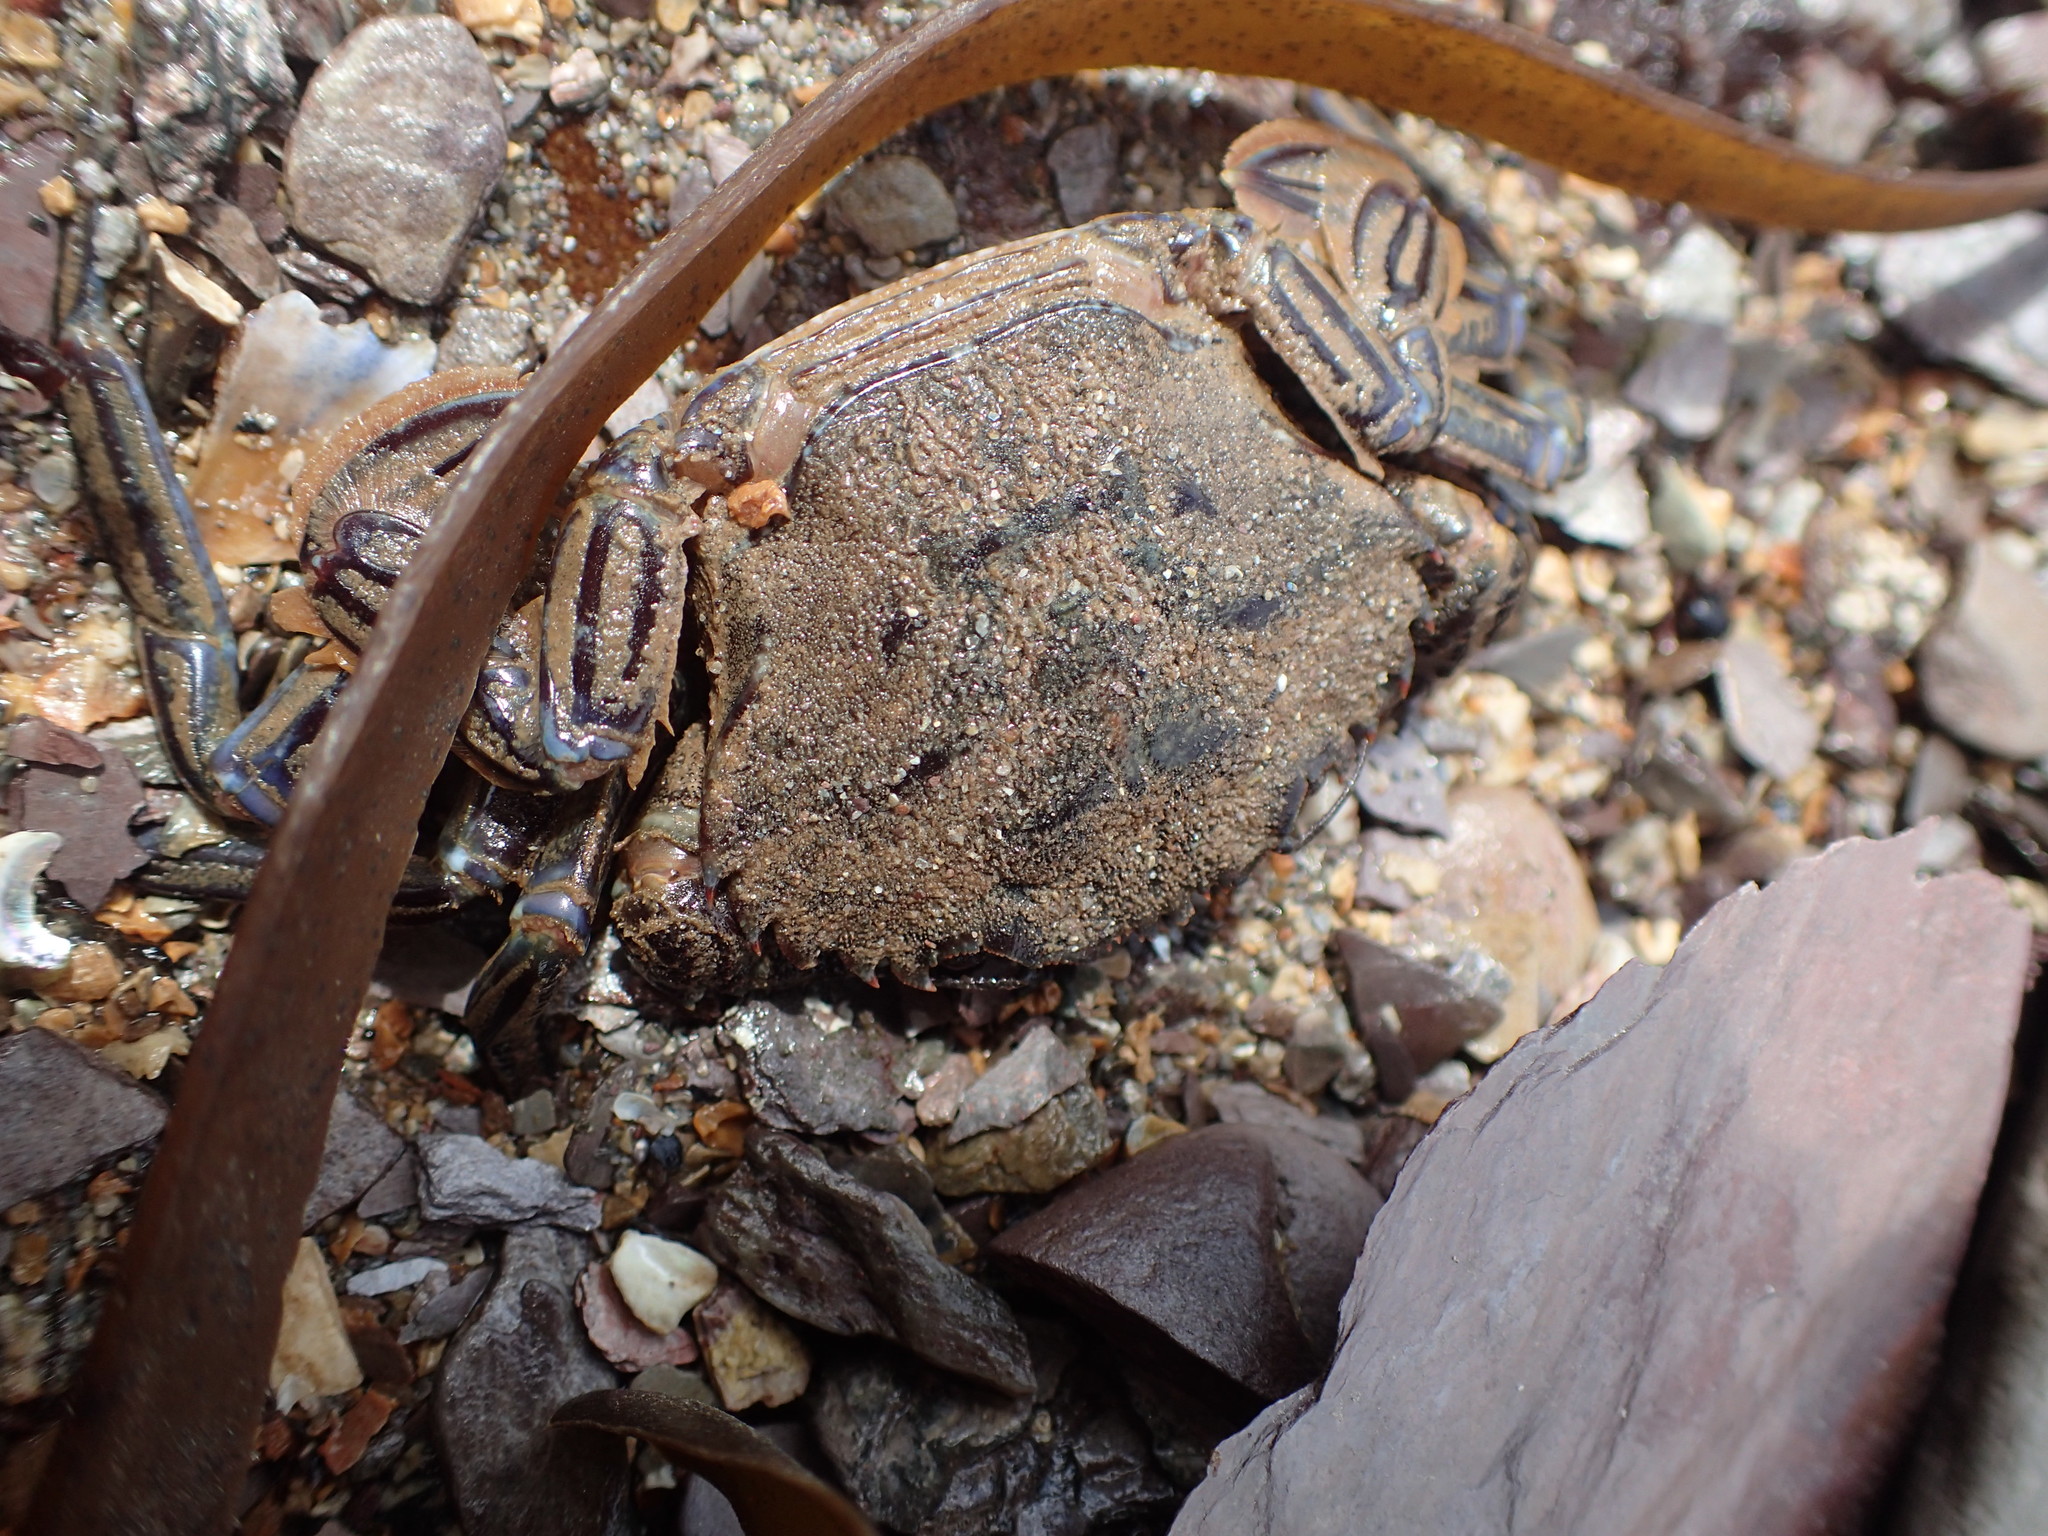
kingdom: Animalia
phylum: Arthropoda
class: Malacostraca
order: Decapoda
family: Polybiidae
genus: Necora
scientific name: Necora puber
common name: Velvet swimming crab
